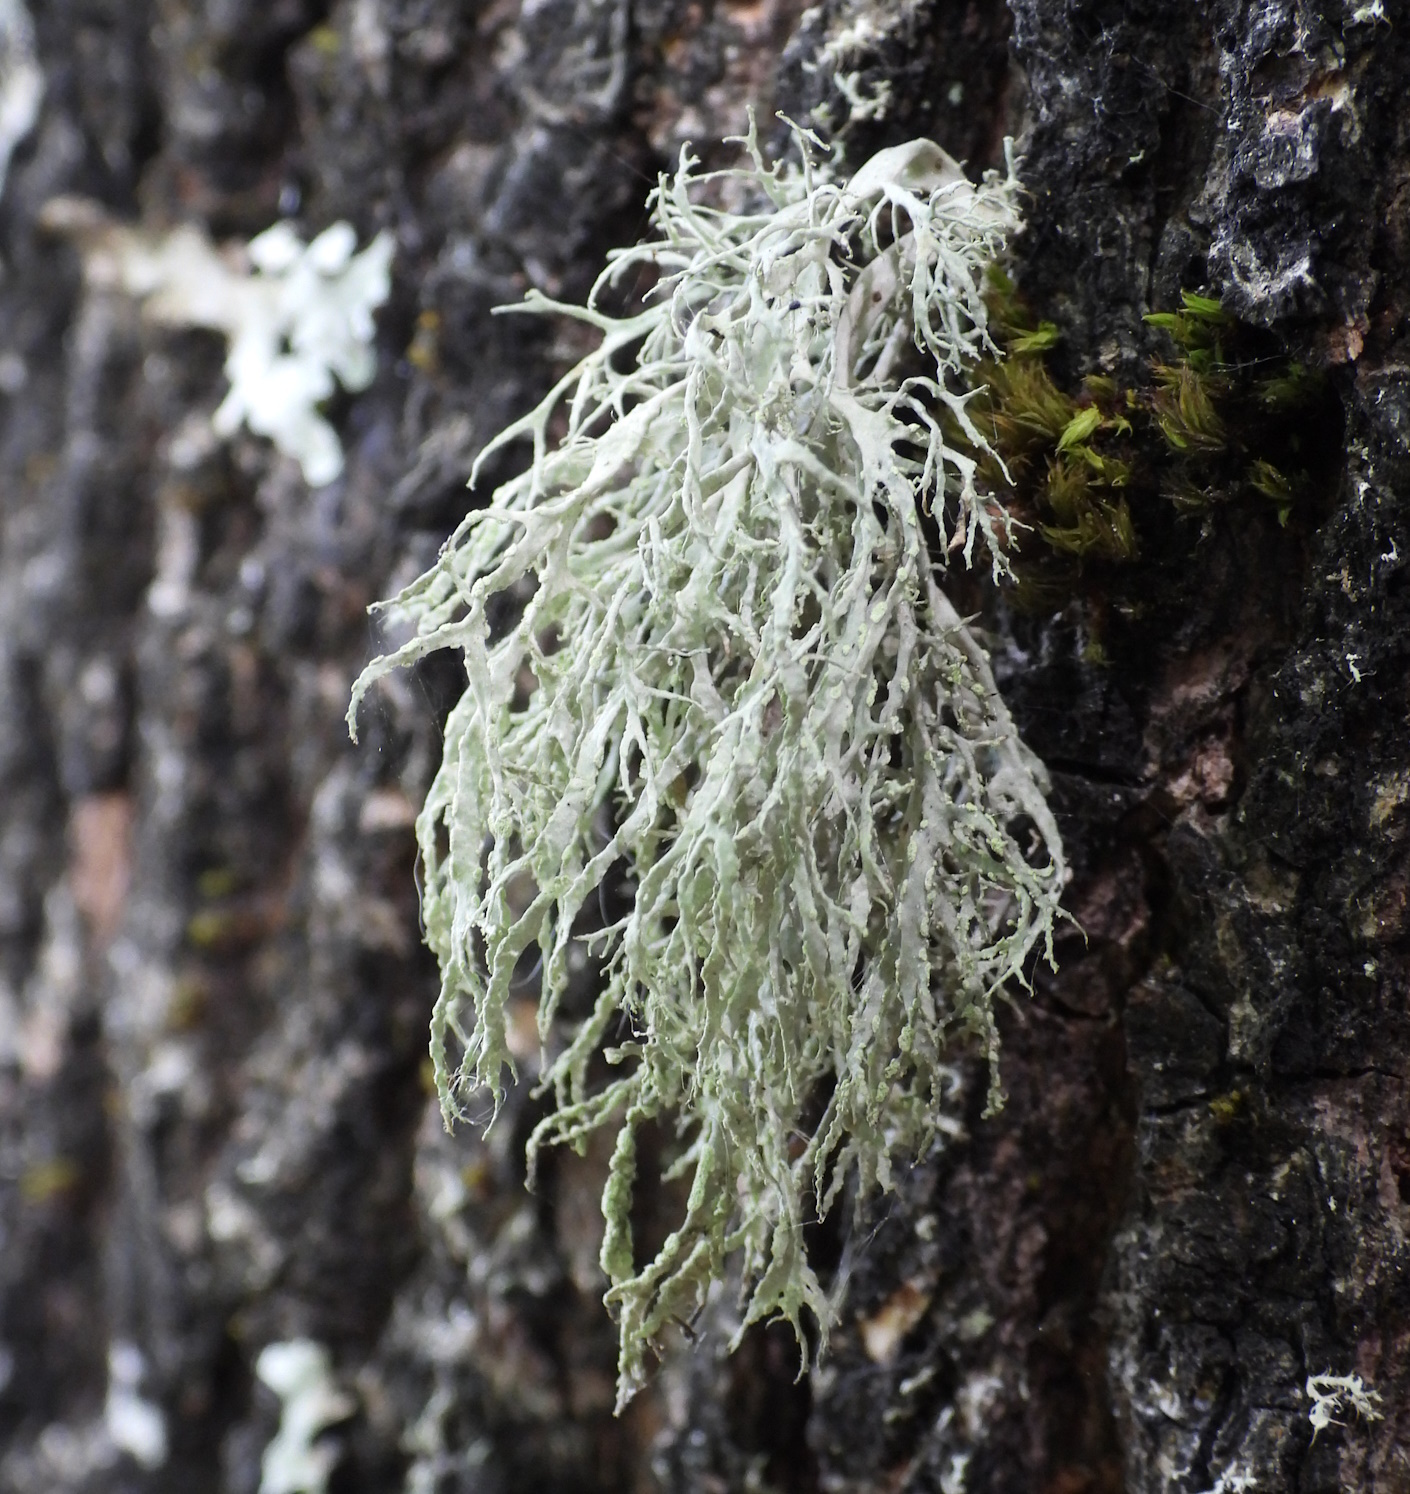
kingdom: Fungi
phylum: Ascomycota
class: Lecanoromycetes
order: Lecanorales
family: Ramalinaceae
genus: Ramalina
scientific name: Ramalina farinacea
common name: Farinose cartilage lichen
